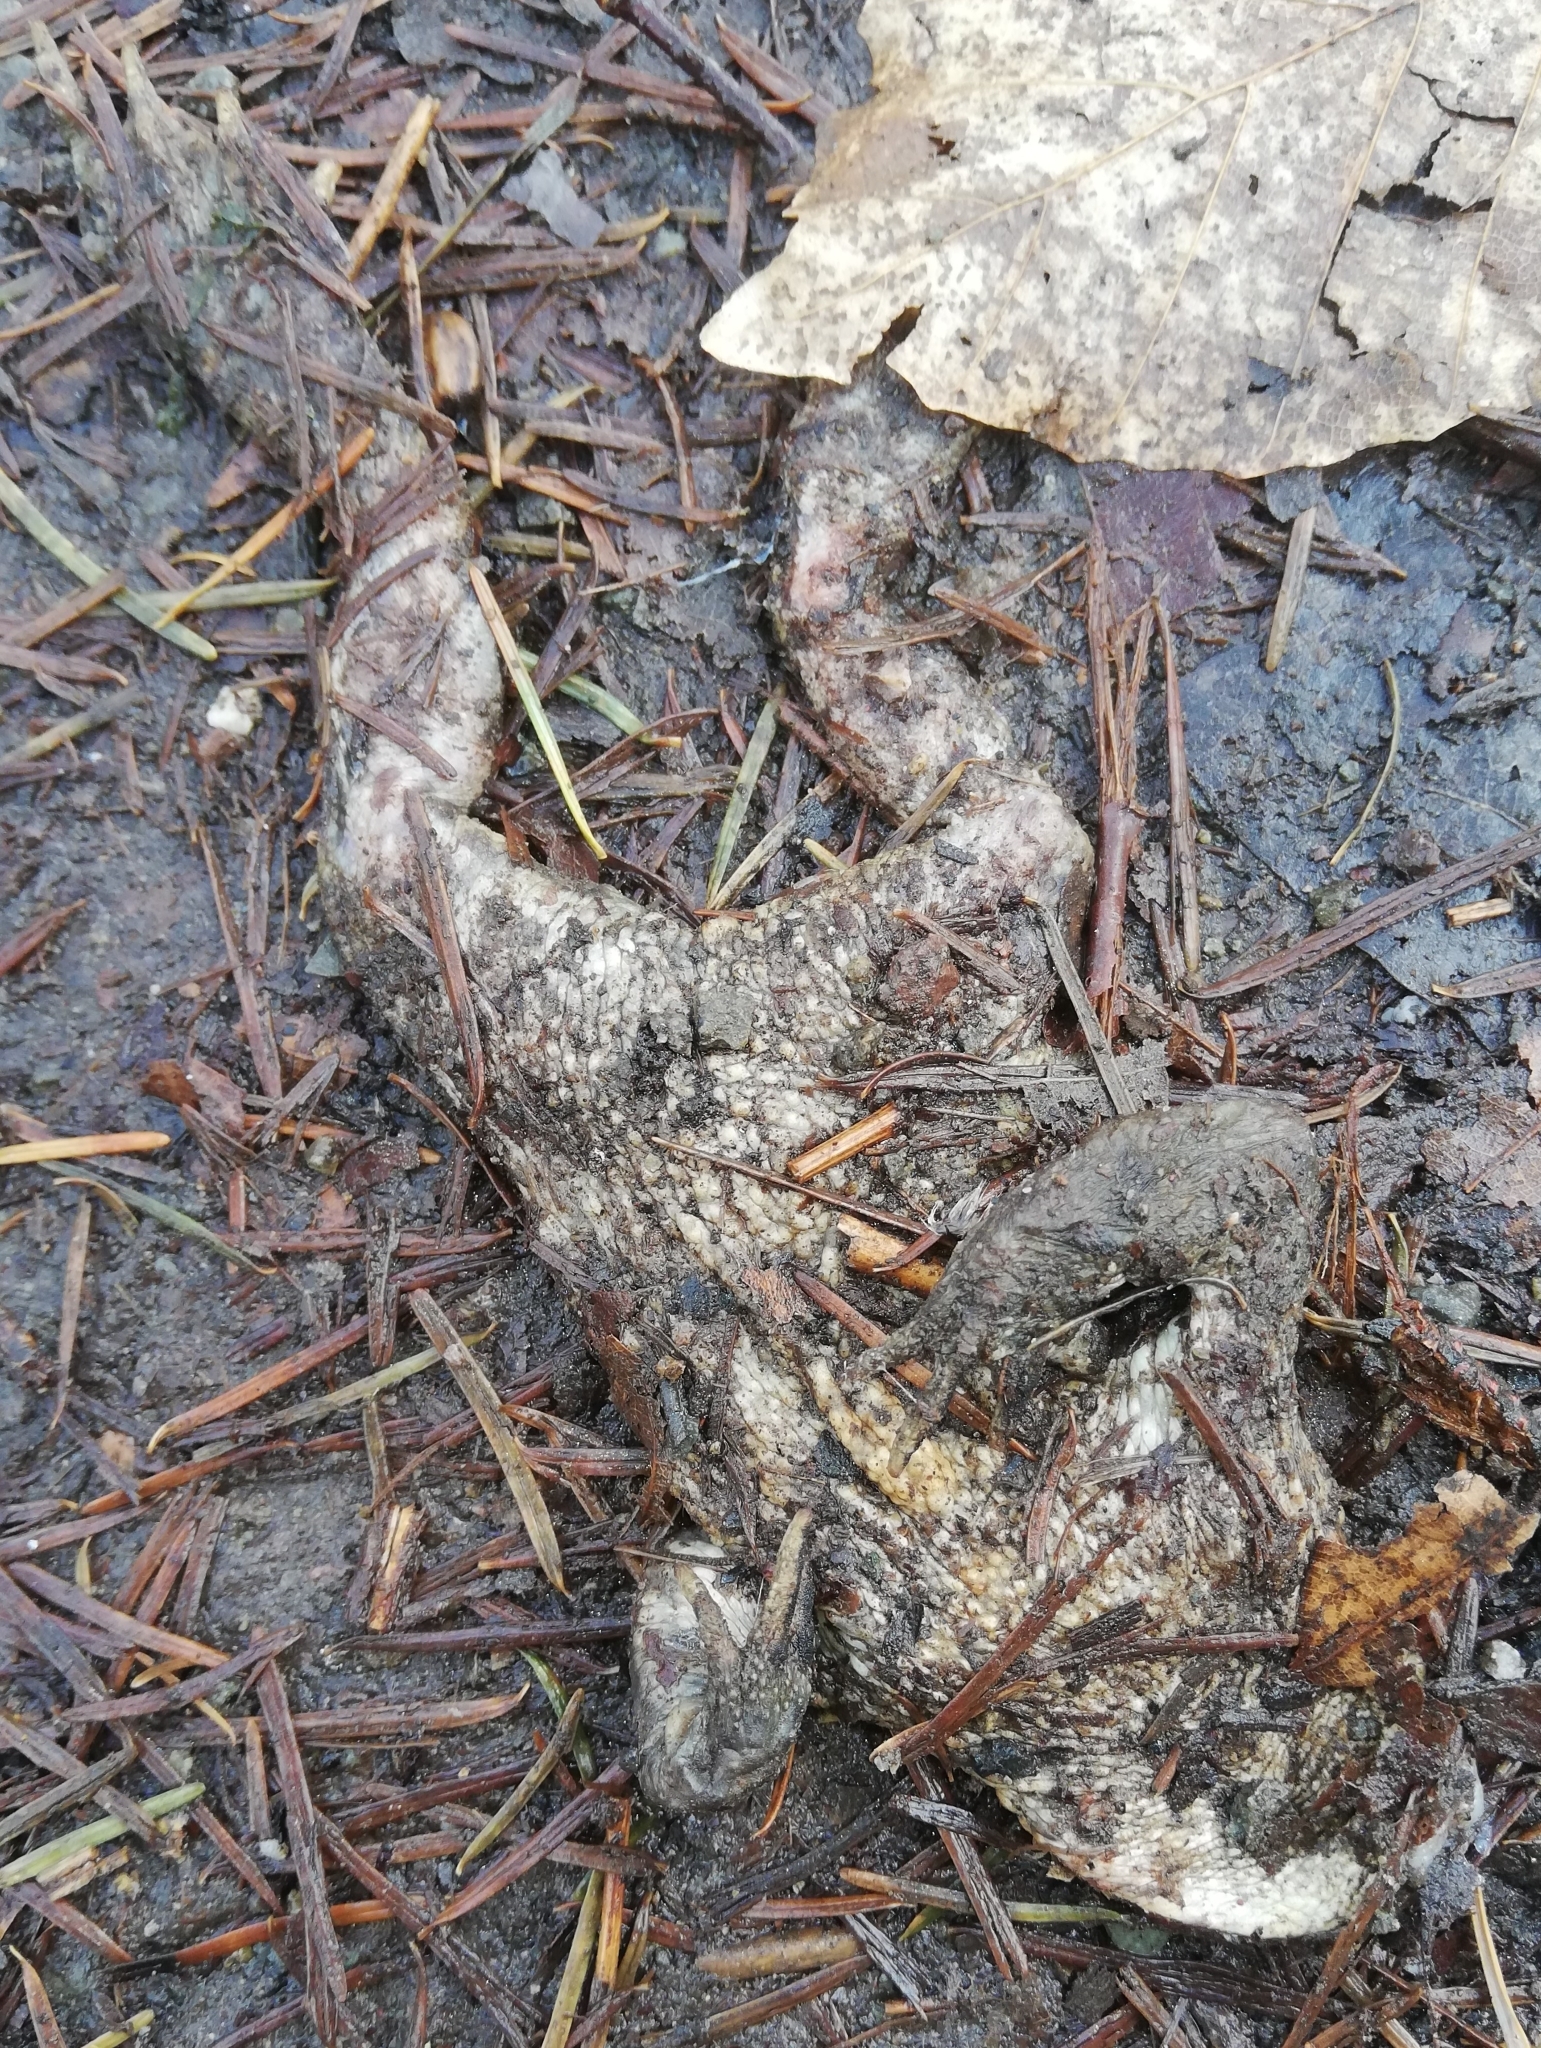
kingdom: Animalia
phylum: Chordata
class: Amphibia
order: Anura
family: Bufonidae
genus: Bufo
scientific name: Bufo bufo
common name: Common toad
